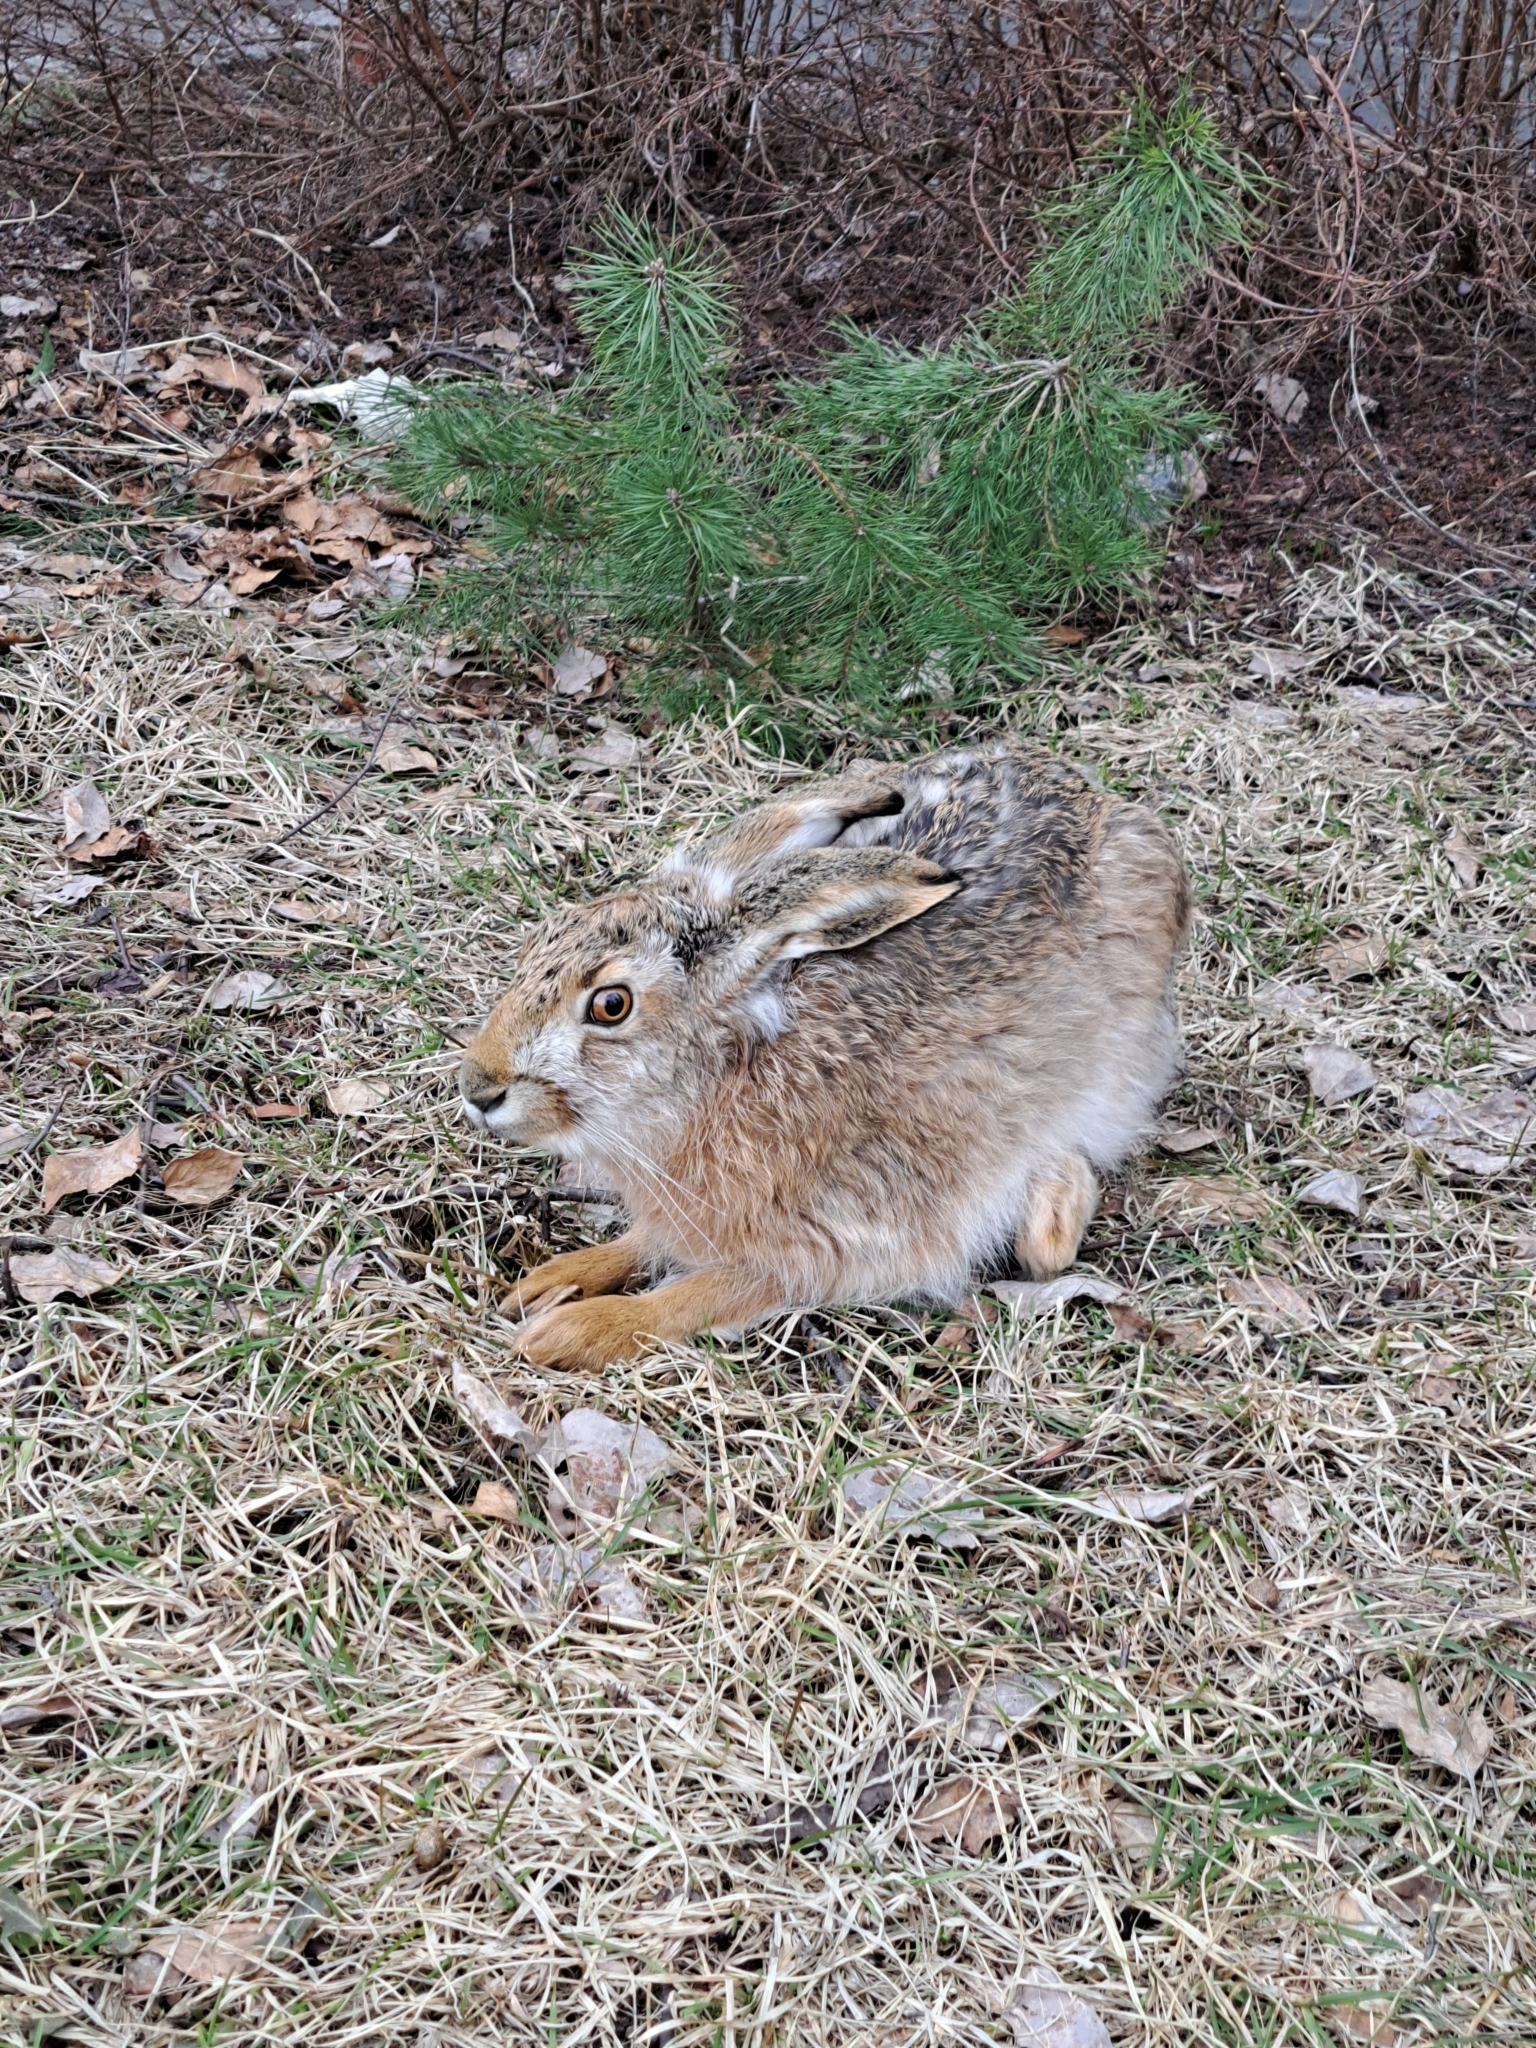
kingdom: Animalia
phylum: Chordata
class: Mammalia
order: Lagomorpha
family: Leporidae
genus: Lepus
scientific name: Lepus europaeus
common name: European hare
